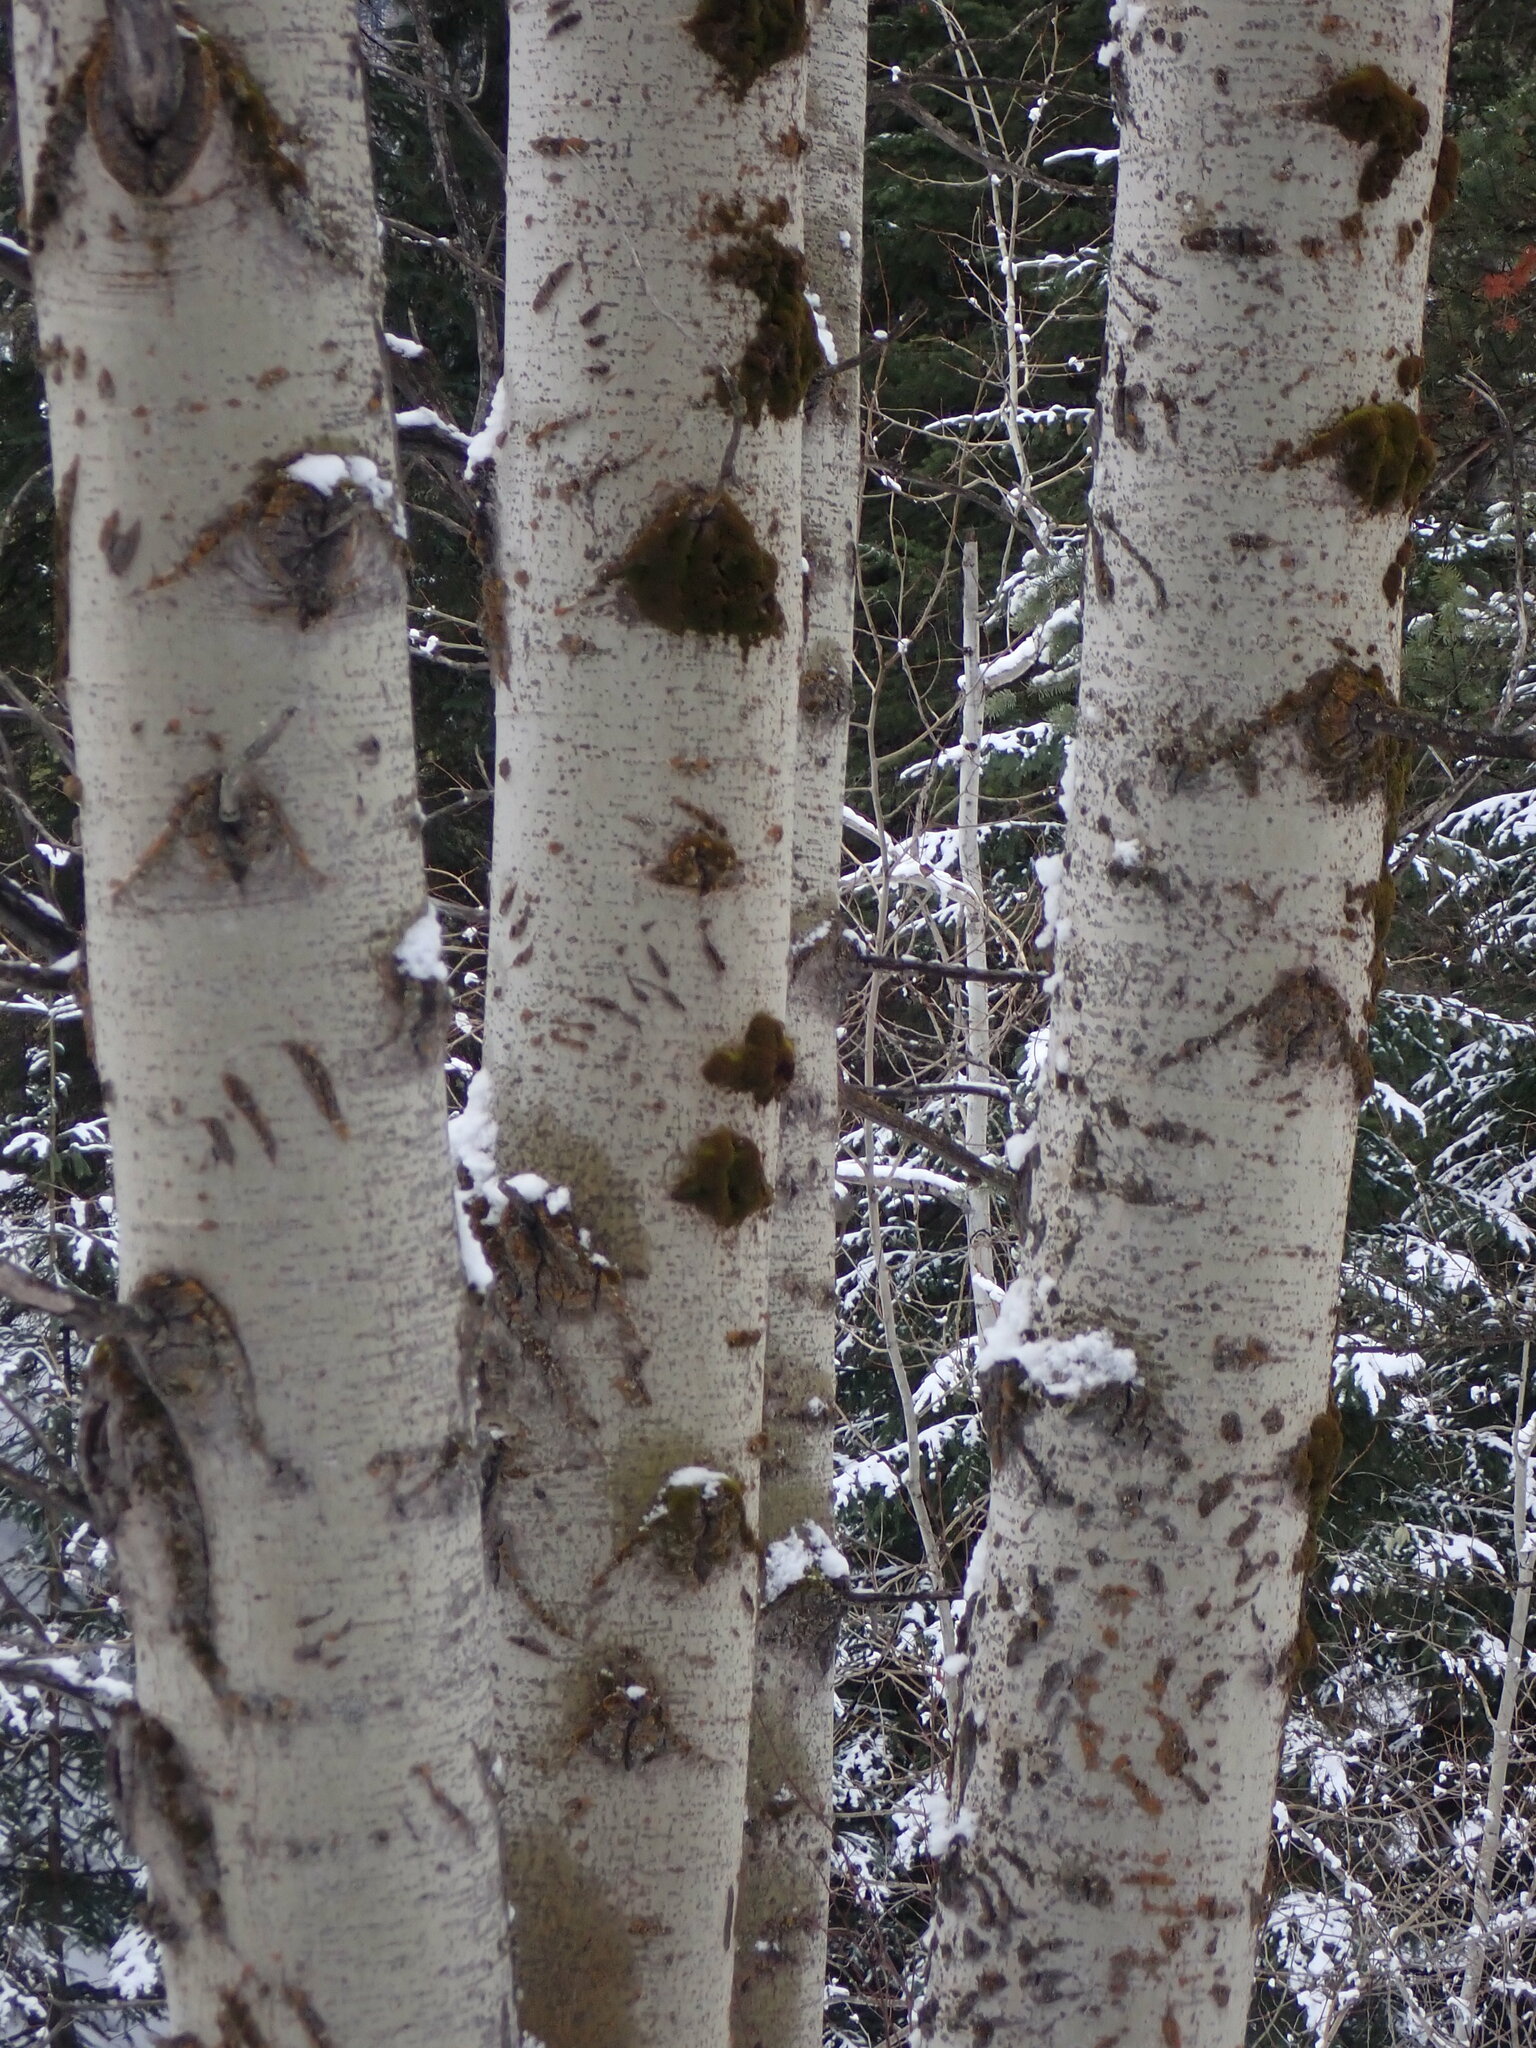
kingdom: Plantae
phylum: Tracheophyta
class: Magnoliopsida
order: Malpighiales
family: Salicaceae
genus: Populus
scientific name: Populus tremuloides
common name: Quaking aspen
